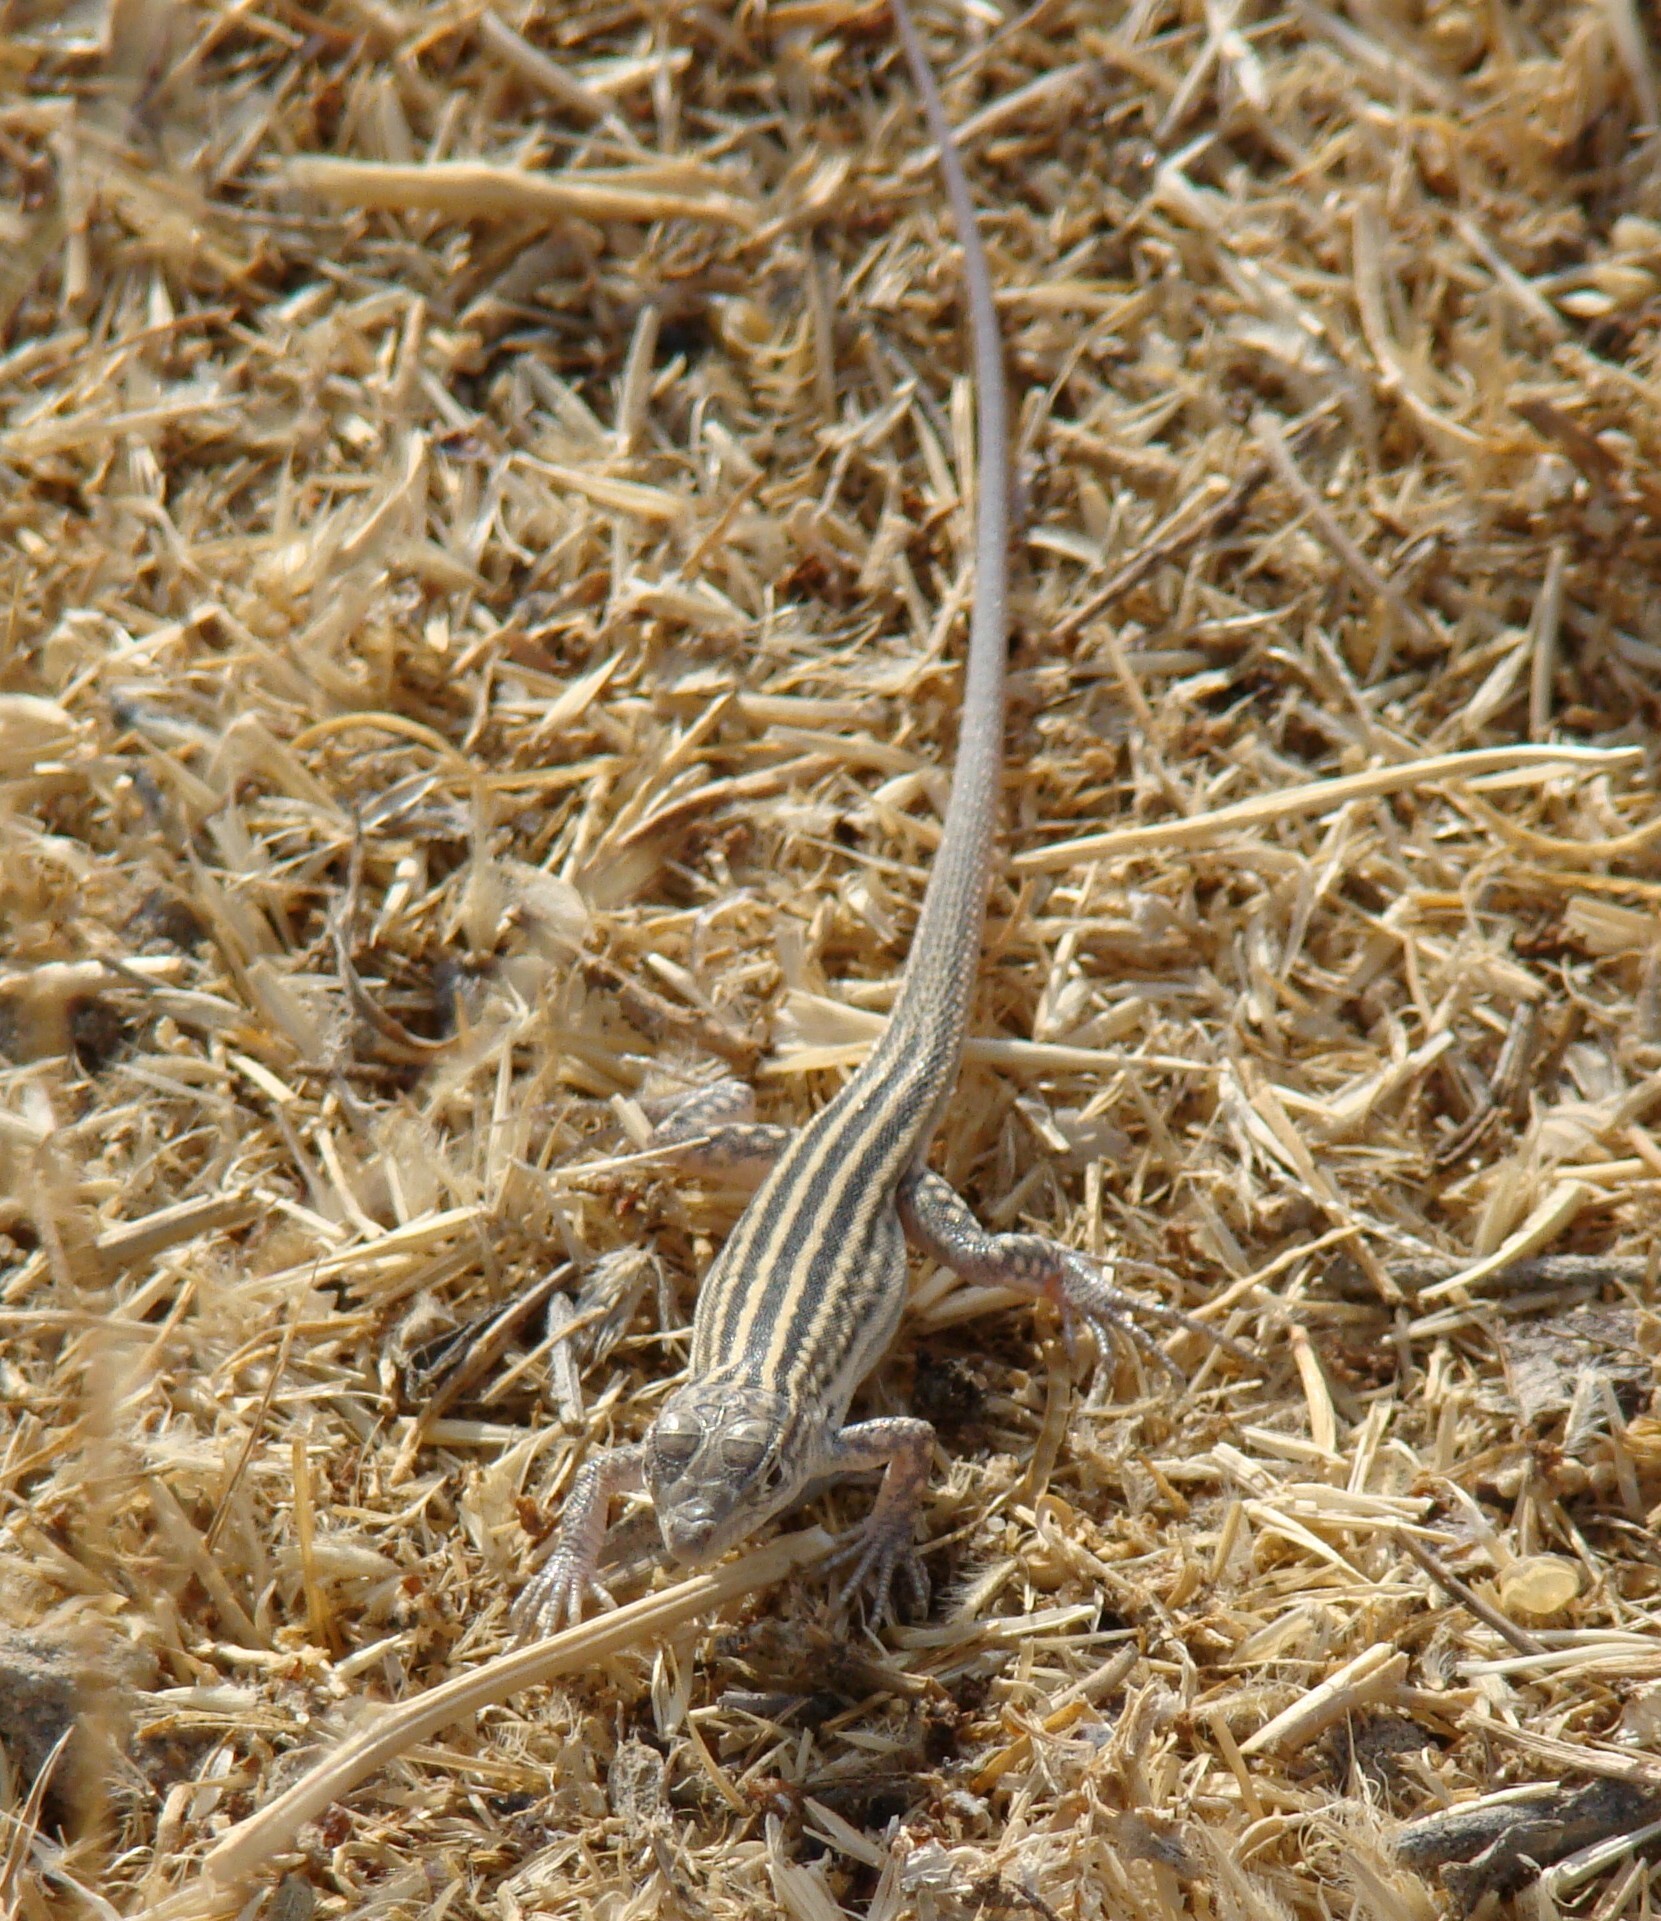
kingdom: Animalia
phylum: Chordata
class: Squamata
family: Lacertidae
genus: Eremias
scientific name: Eremias velox
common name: Central asian racerunner
